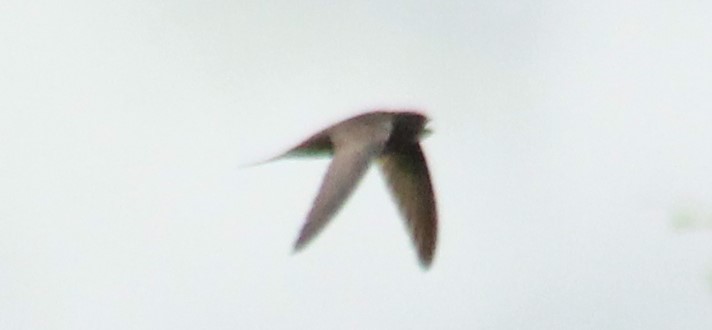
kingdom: Animalia
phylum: Chordata
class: Aves
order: Apodiformes
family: Apodidae
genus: Apus
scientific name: Apus apus
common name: Common swift
